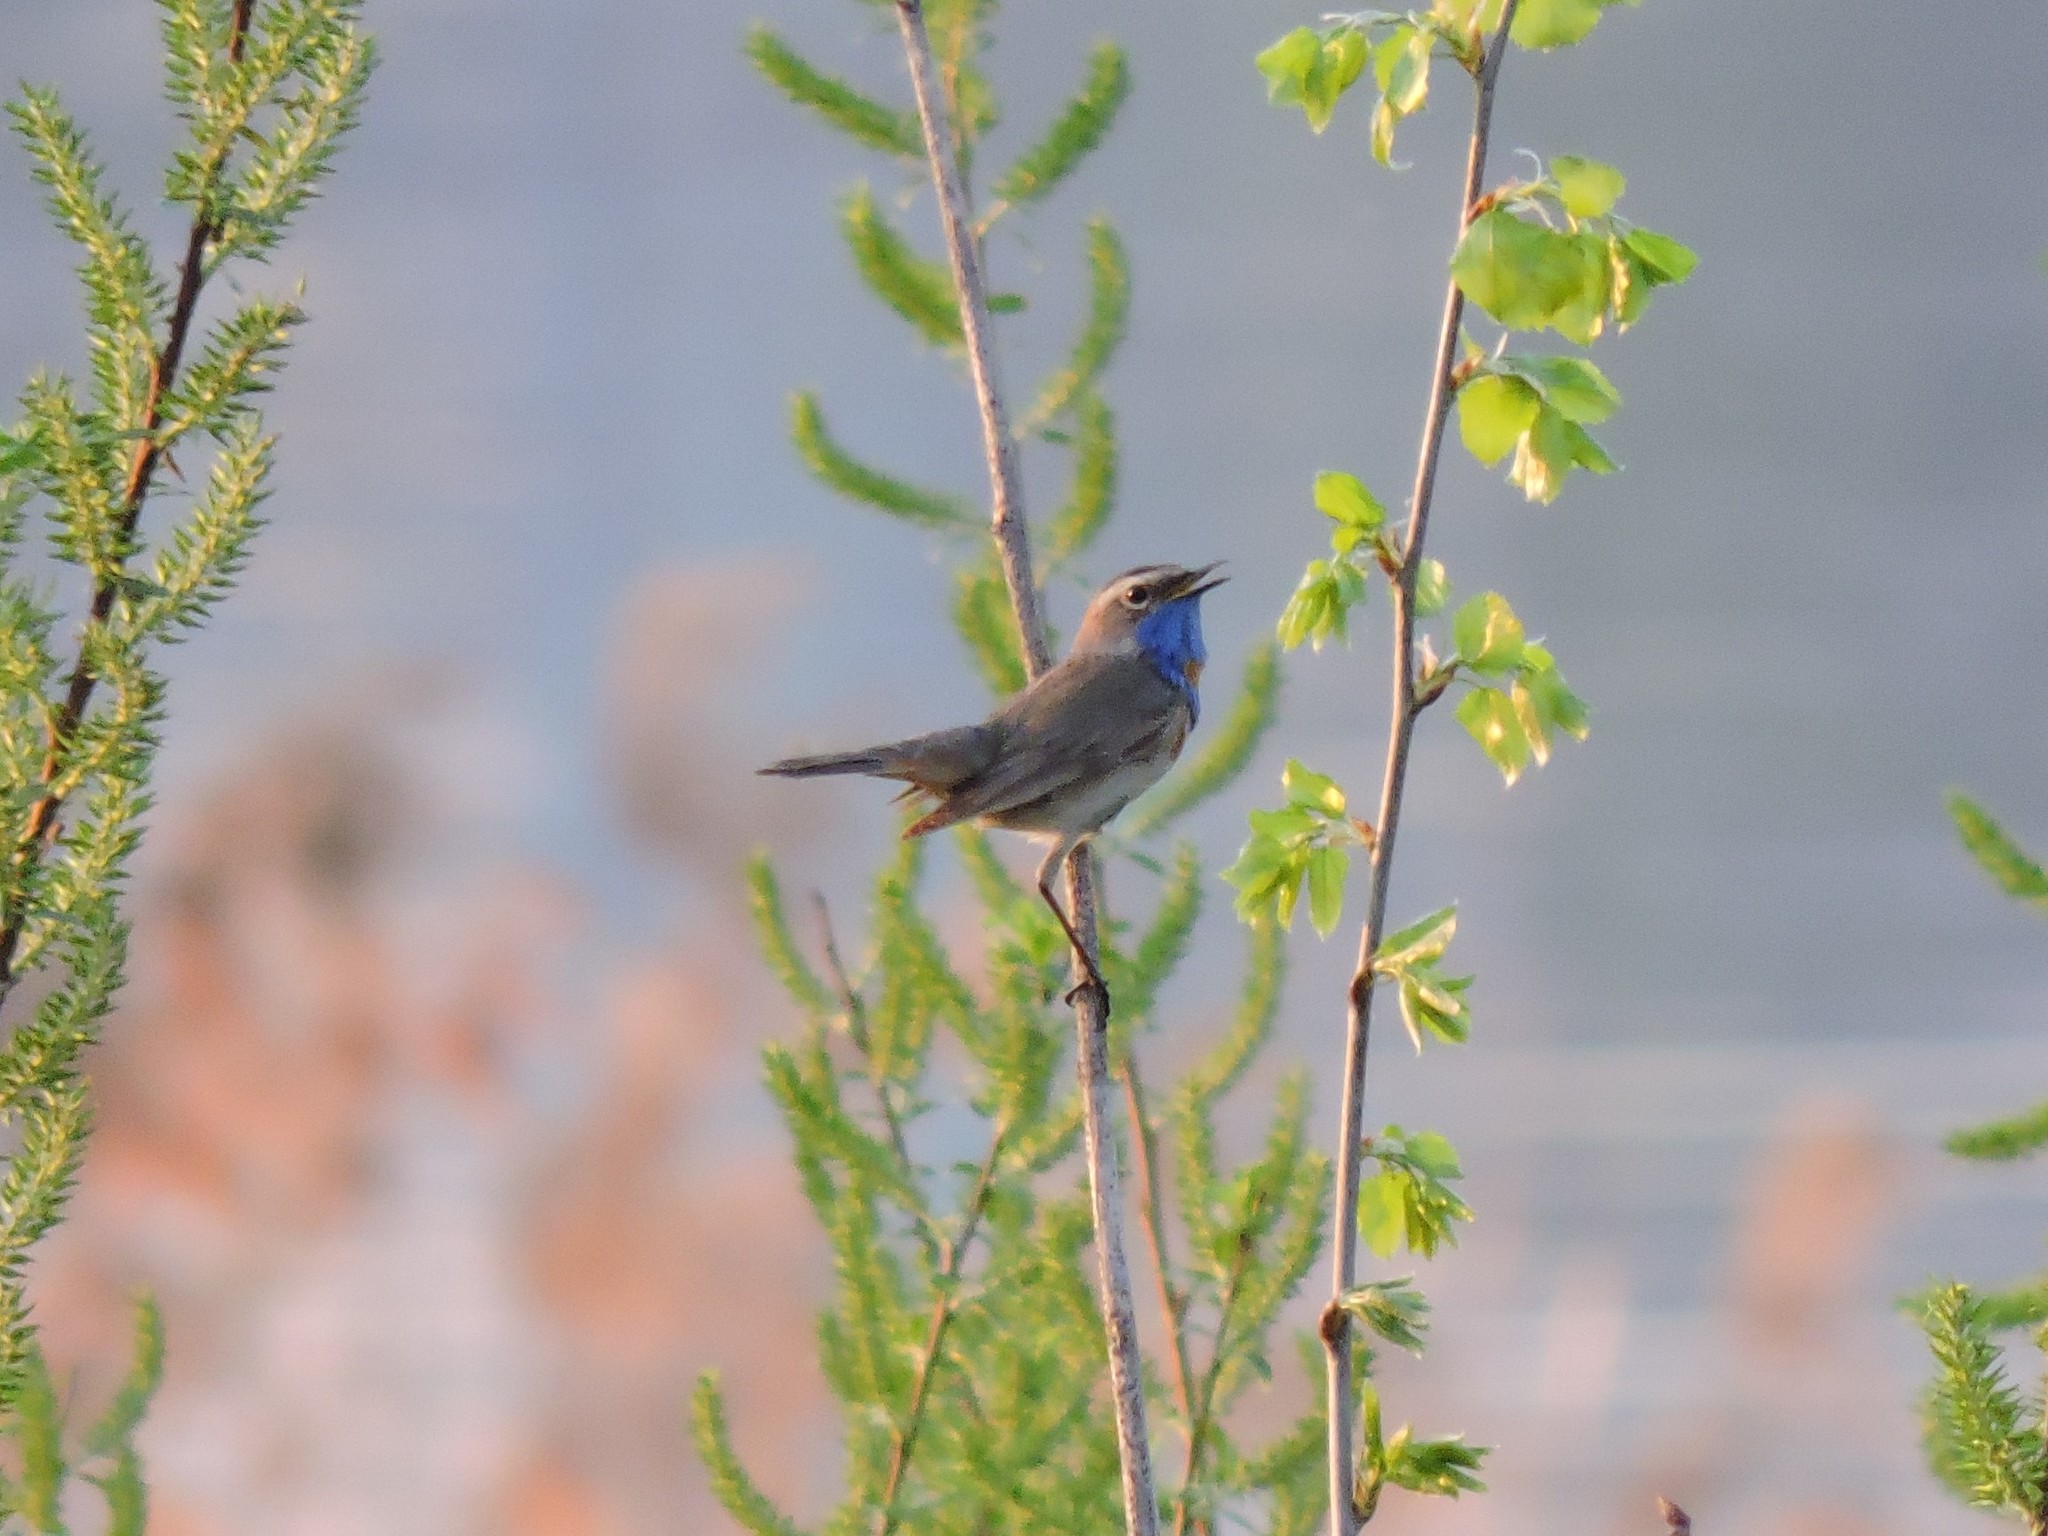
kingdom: Animalia
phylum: Chordata
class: Aves
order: Passeriformes
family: Muscicapidae
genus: Luscinia
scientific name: Luscinia svecica
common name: Bluethroat
